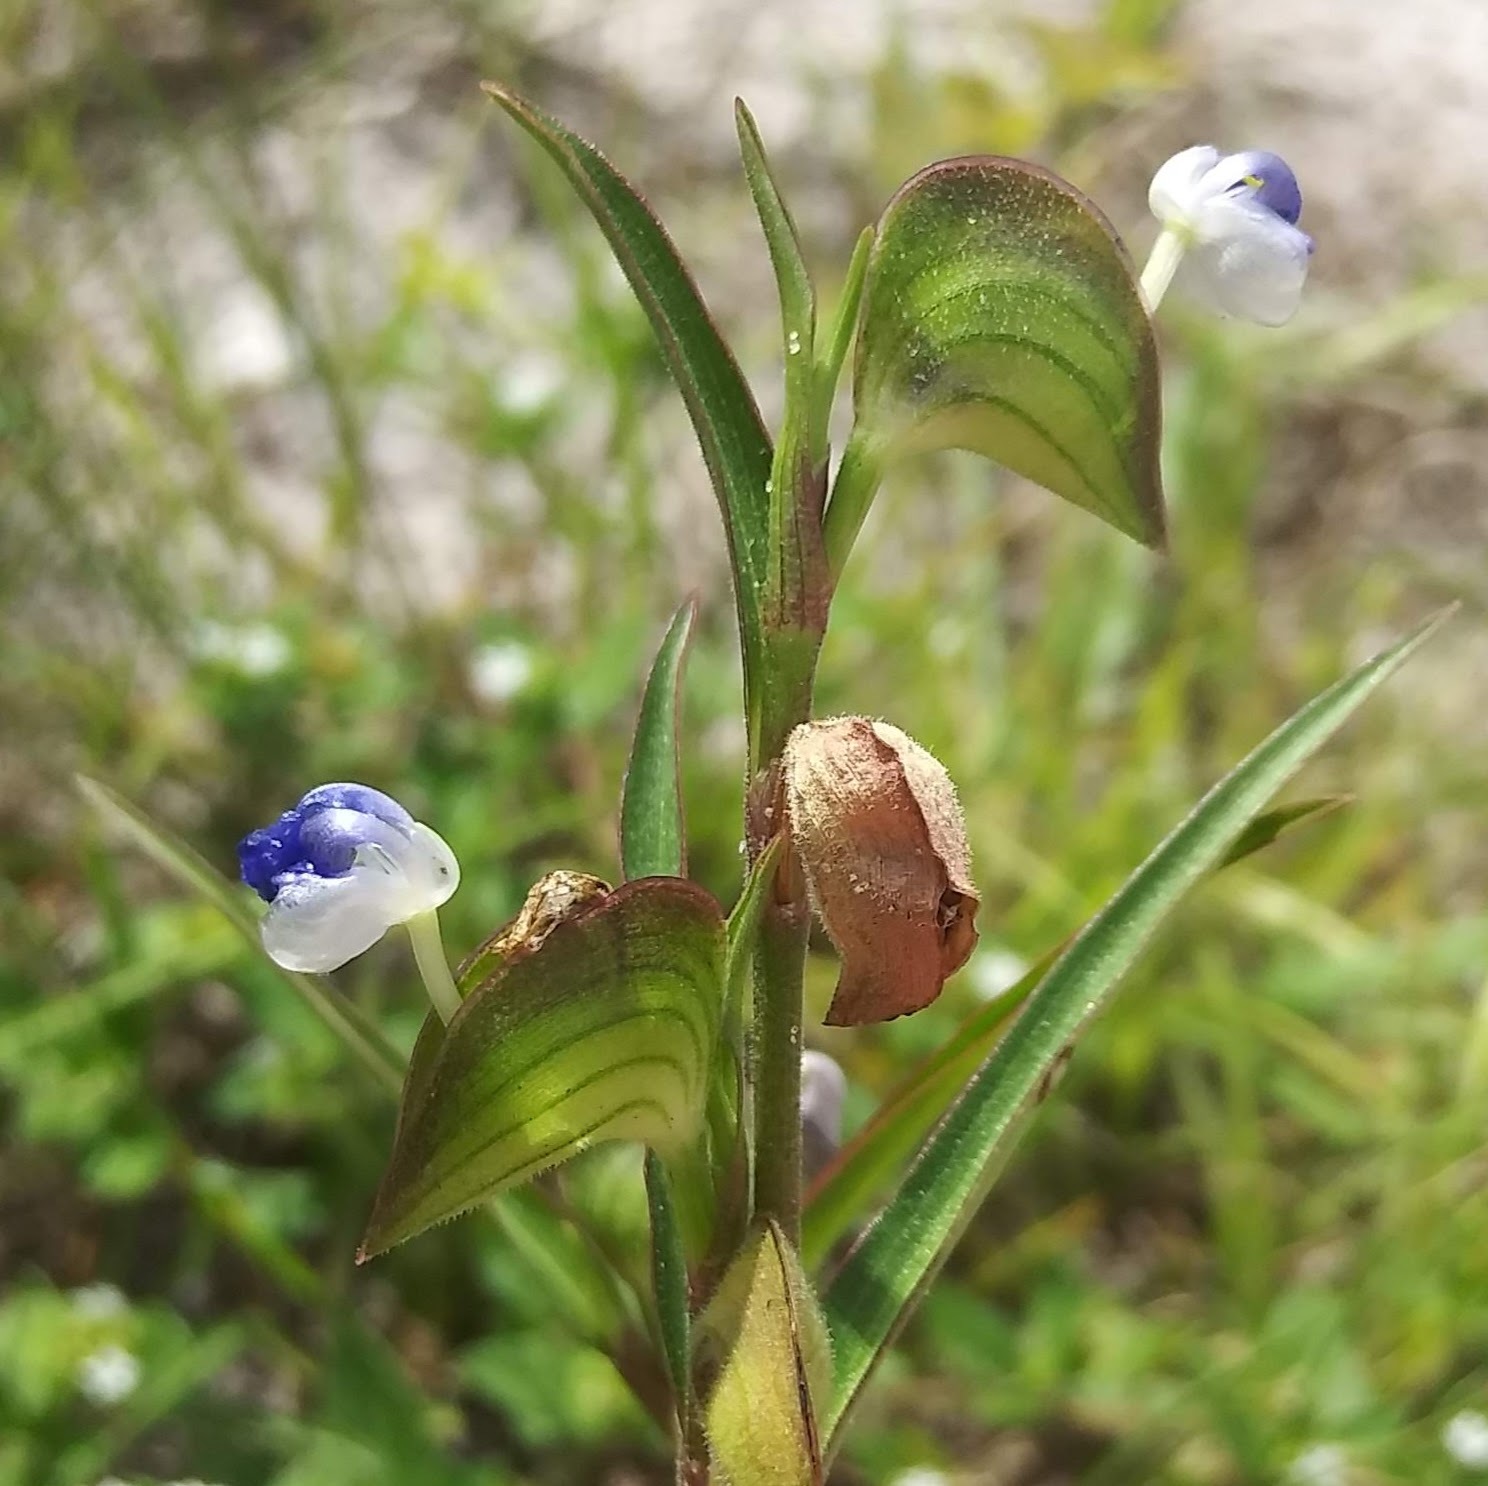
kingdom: Plantae
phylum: Tracheophyta
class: Liliopsida
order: Commelinales
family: Commelinaceae
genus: Commelina
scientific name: Commelina erecta
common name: Blousel blommetjie
